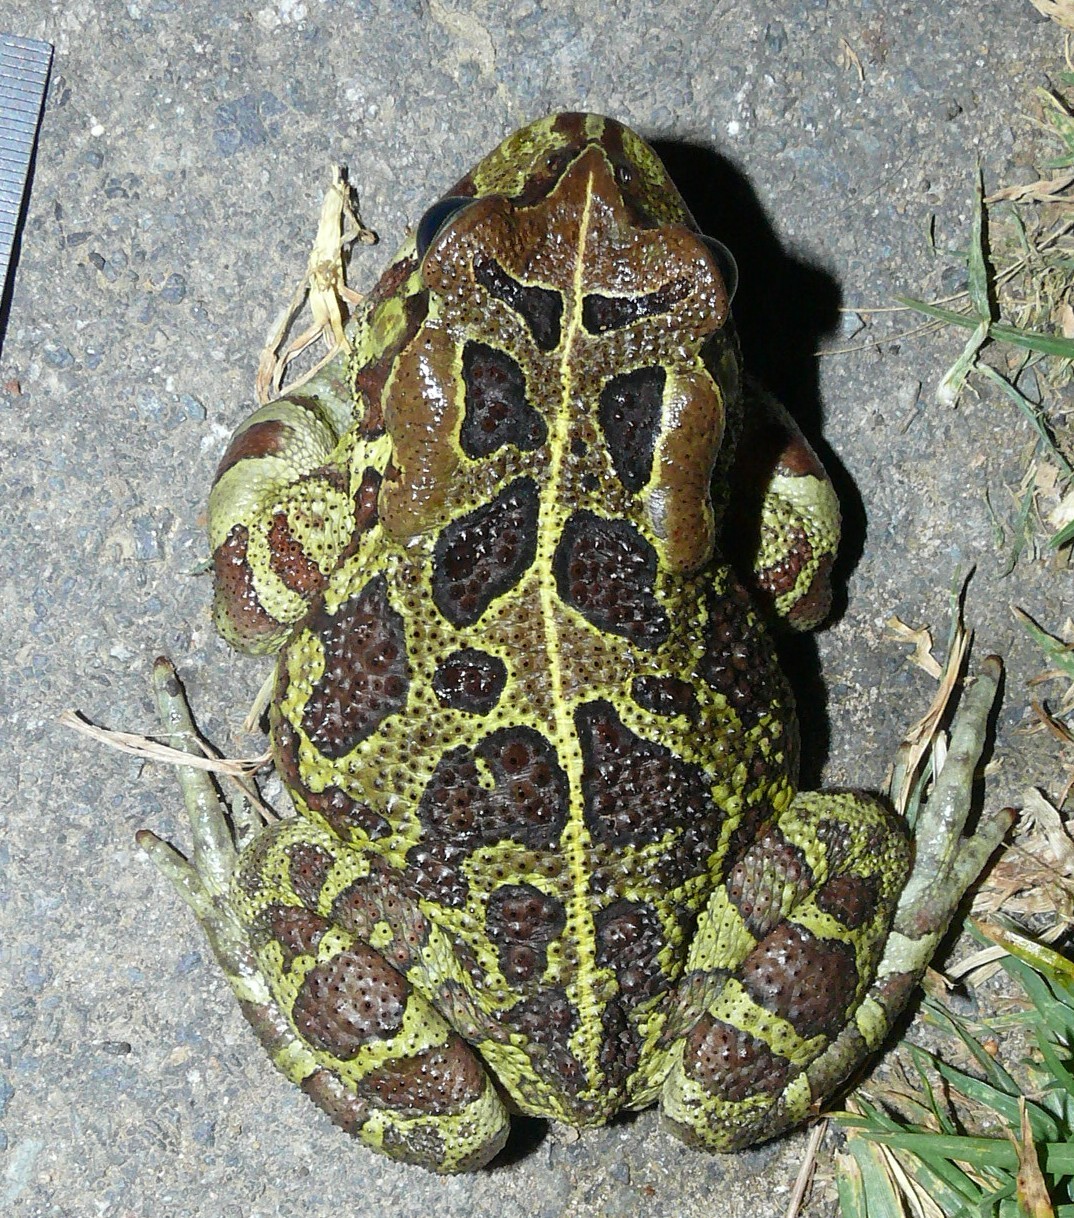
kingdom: Animalia
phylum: Chordata
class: Amphibia
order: Anura
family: Bufonidae
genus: Sclerophrys
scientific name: Sclerophrys pantherina
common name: Panther toad
